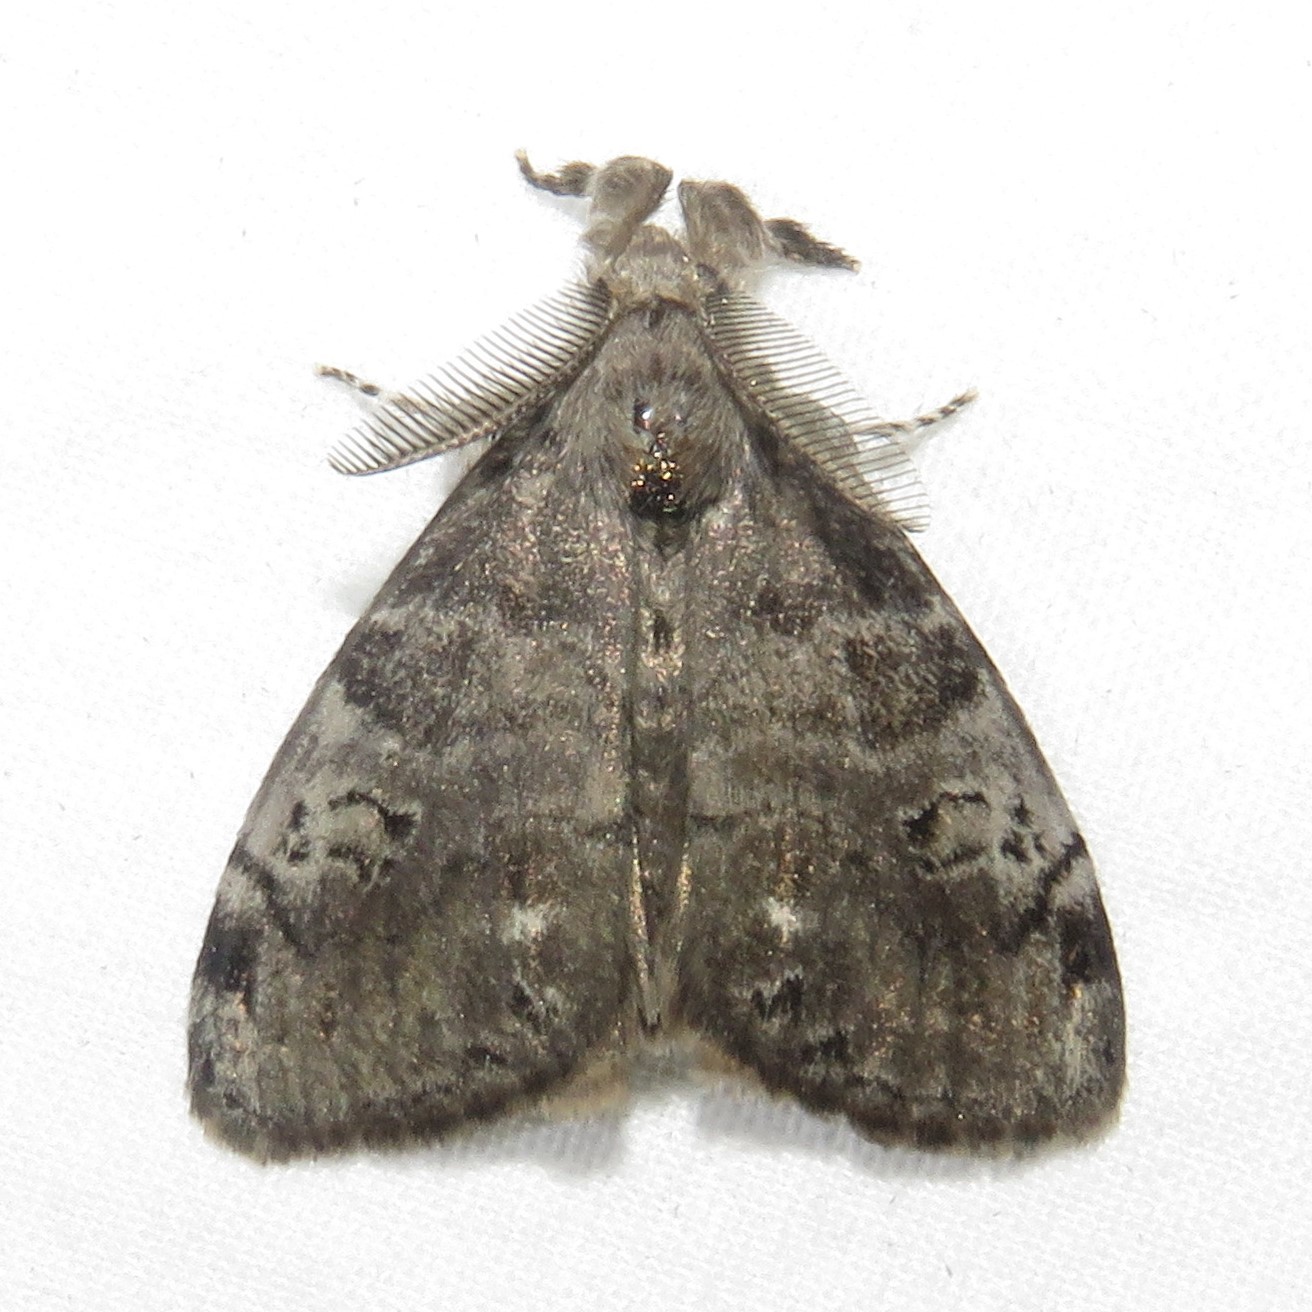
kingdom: Animalia
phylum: Arthropoda
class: Insecta
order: Lepidoptera
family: Erebidae
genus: Orgyia
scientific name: Orgyia leucostigma
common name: White-marked tussock moth
